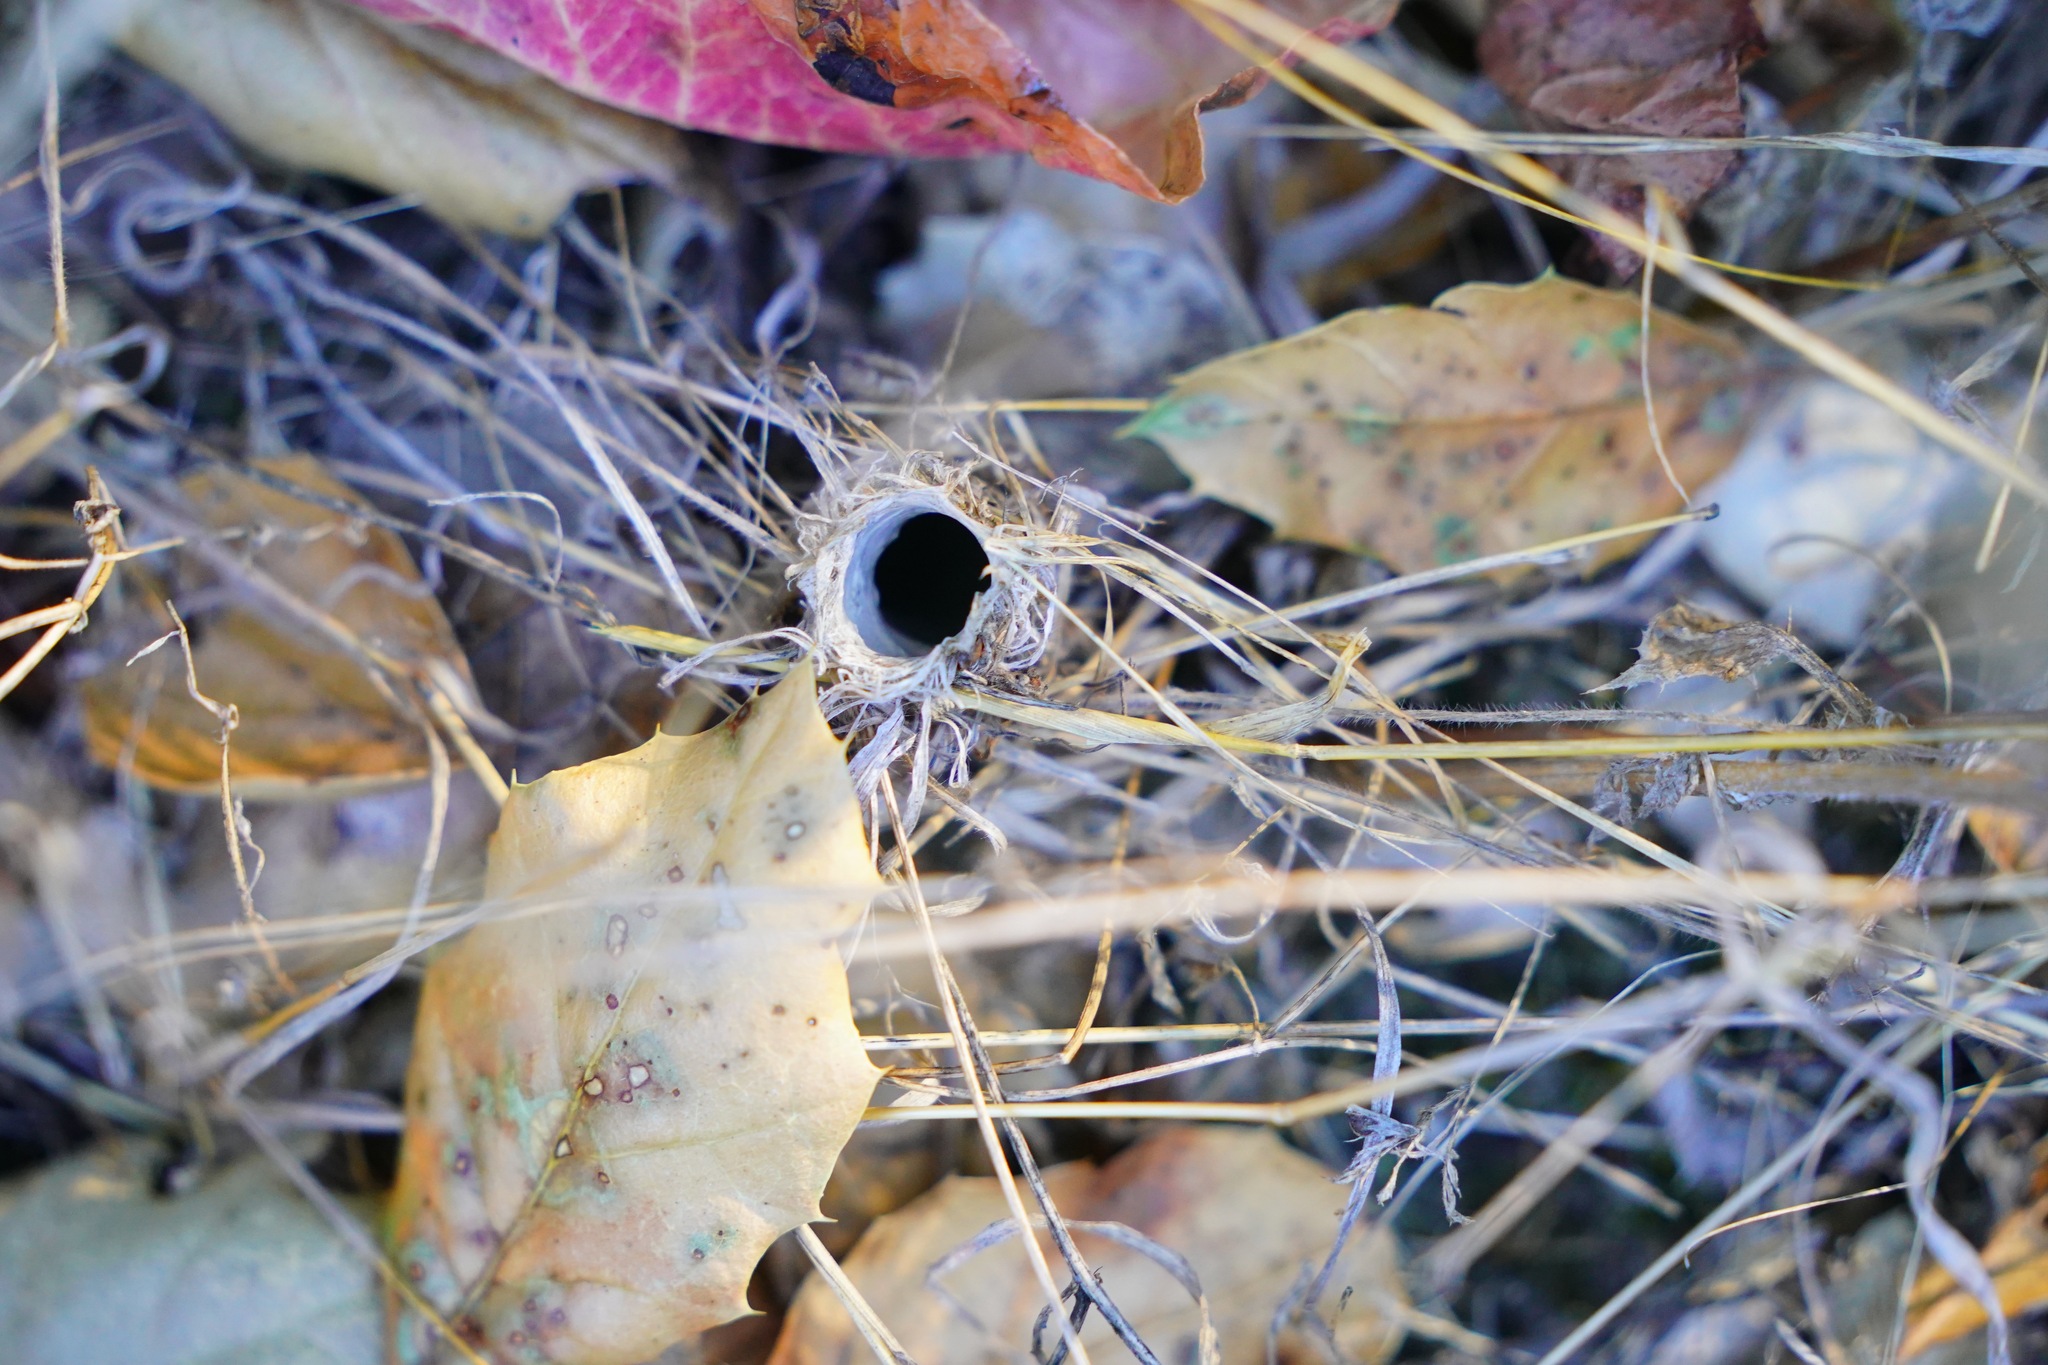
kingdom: Animalia
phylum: Arthropoda
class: Arachnida
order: Araneae
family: Antrodiaetidae
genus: Atypoides
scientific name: Atypoides riversi
